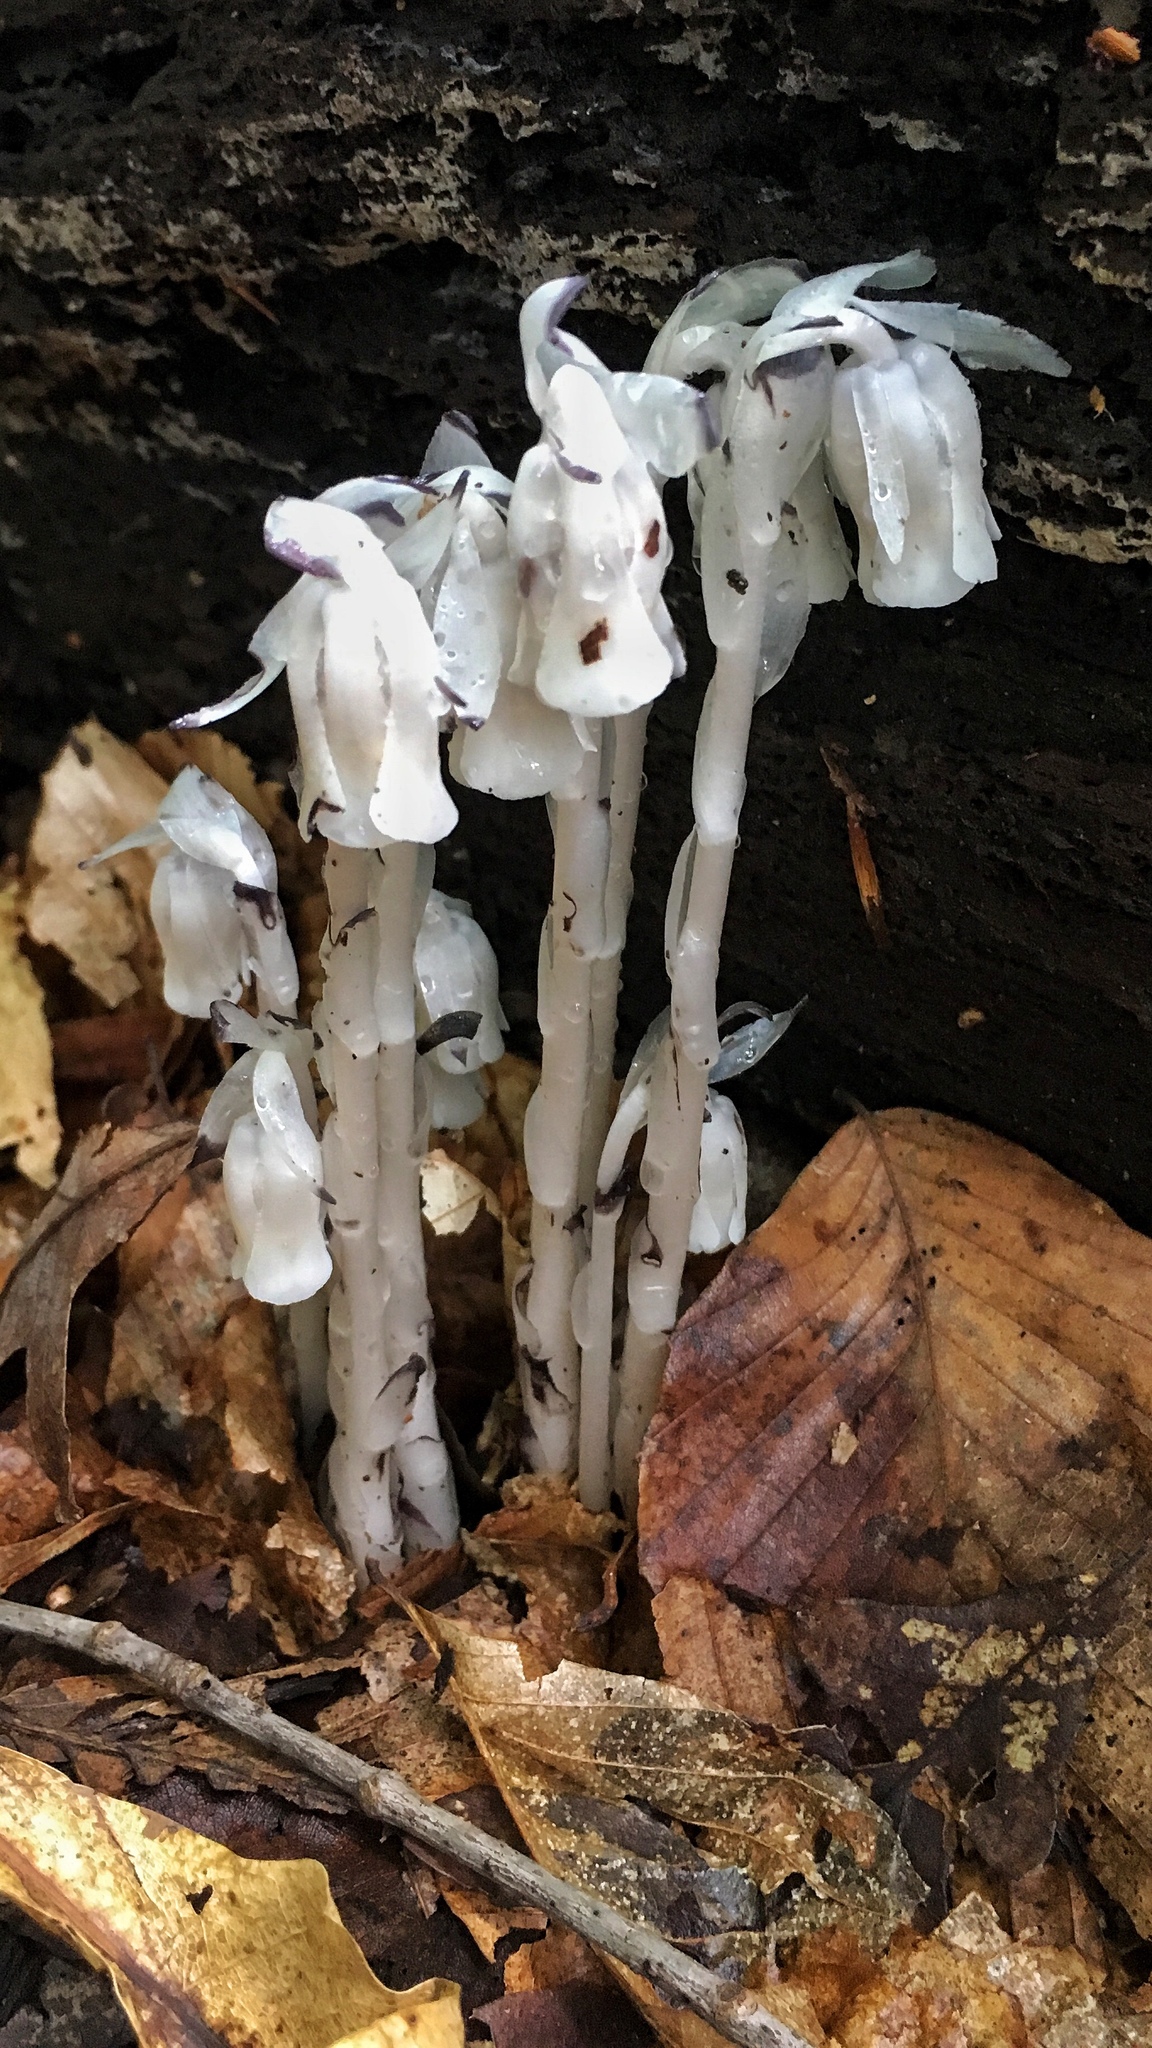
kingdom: Plantae
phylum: Tracheophyta
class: Magnoliopsida
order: Ericales
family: Ericaceae
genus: Monotropa
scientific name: Monotropa uniflora
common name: Convulsion root
